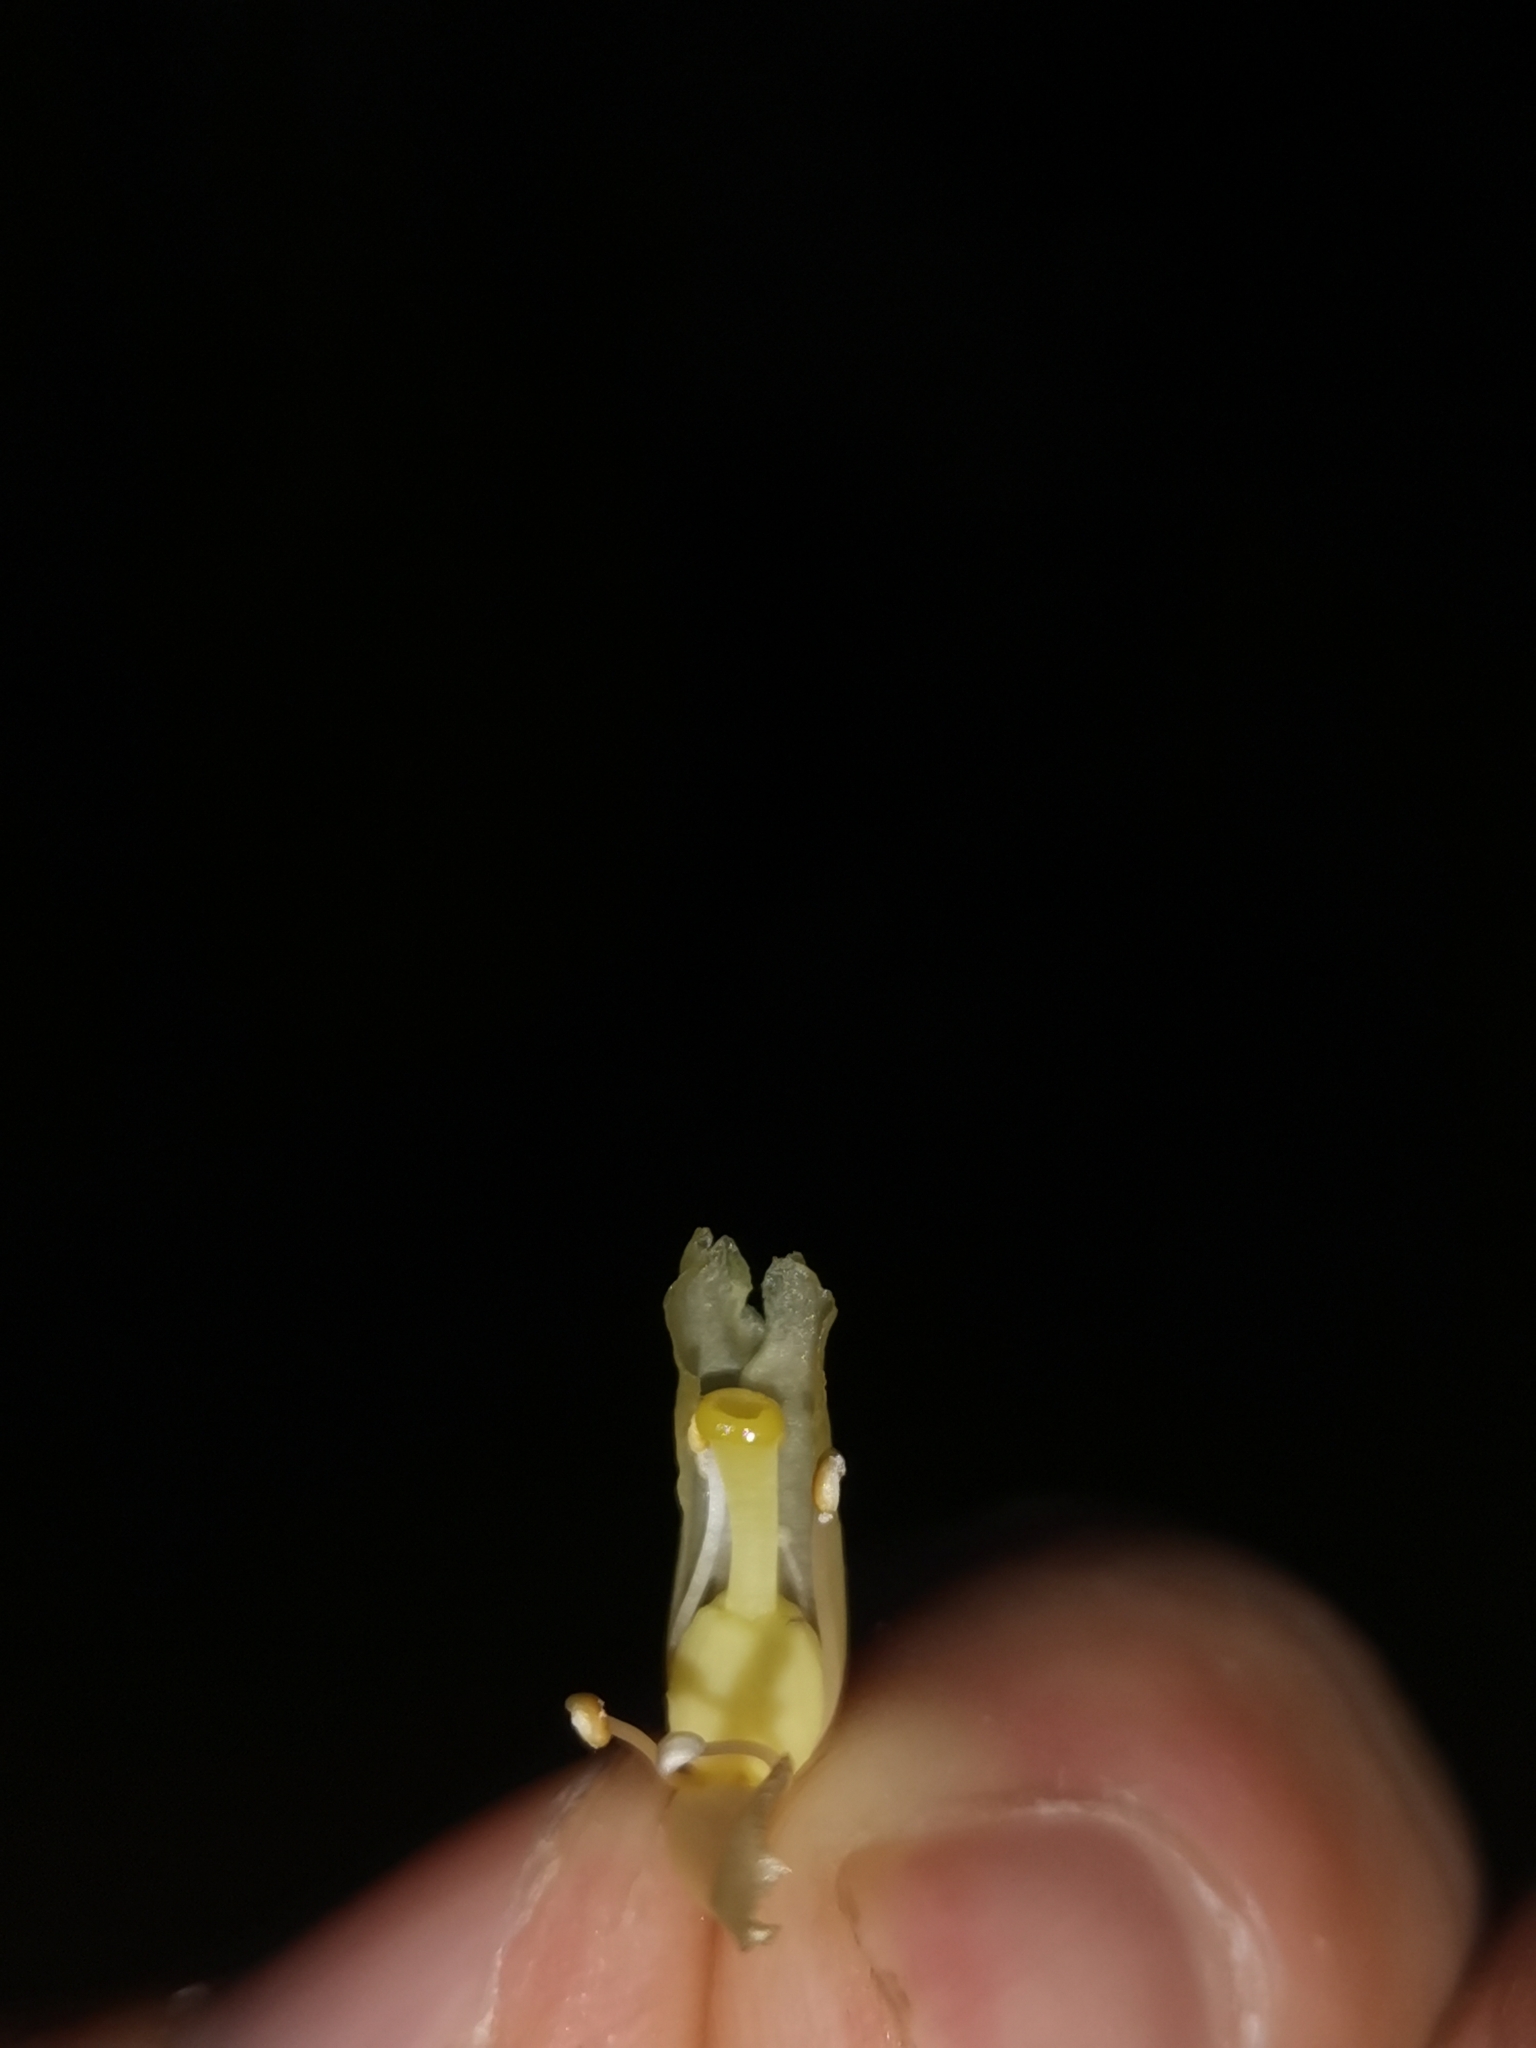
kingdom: Plantae
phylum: Tracheophyta
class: Magnoliopsida
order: Ericales
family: Ericaceae
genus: Hypopitys
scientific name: Hypopitys hypophegea
